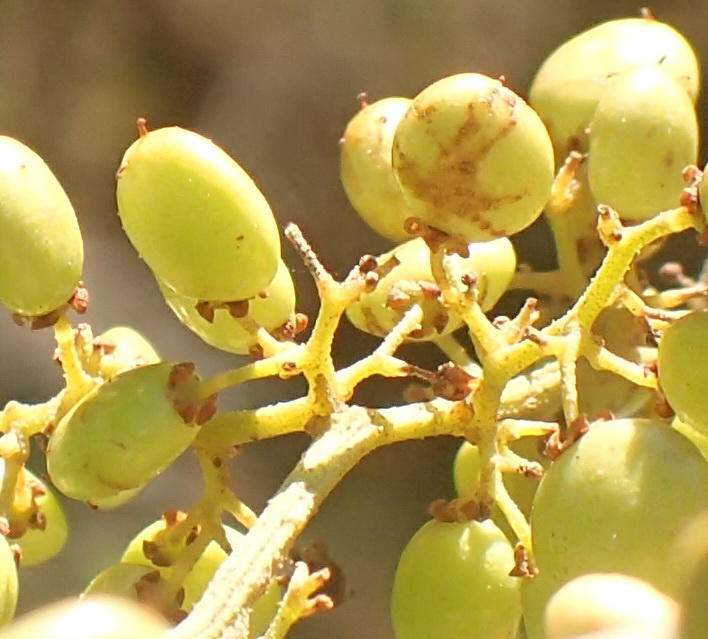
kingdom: Plantae
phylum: Tracheophyta
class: Magnoliopsida
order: Sapindales
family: Anacardiaceae
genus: Searsia
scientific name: Searsia pallens
